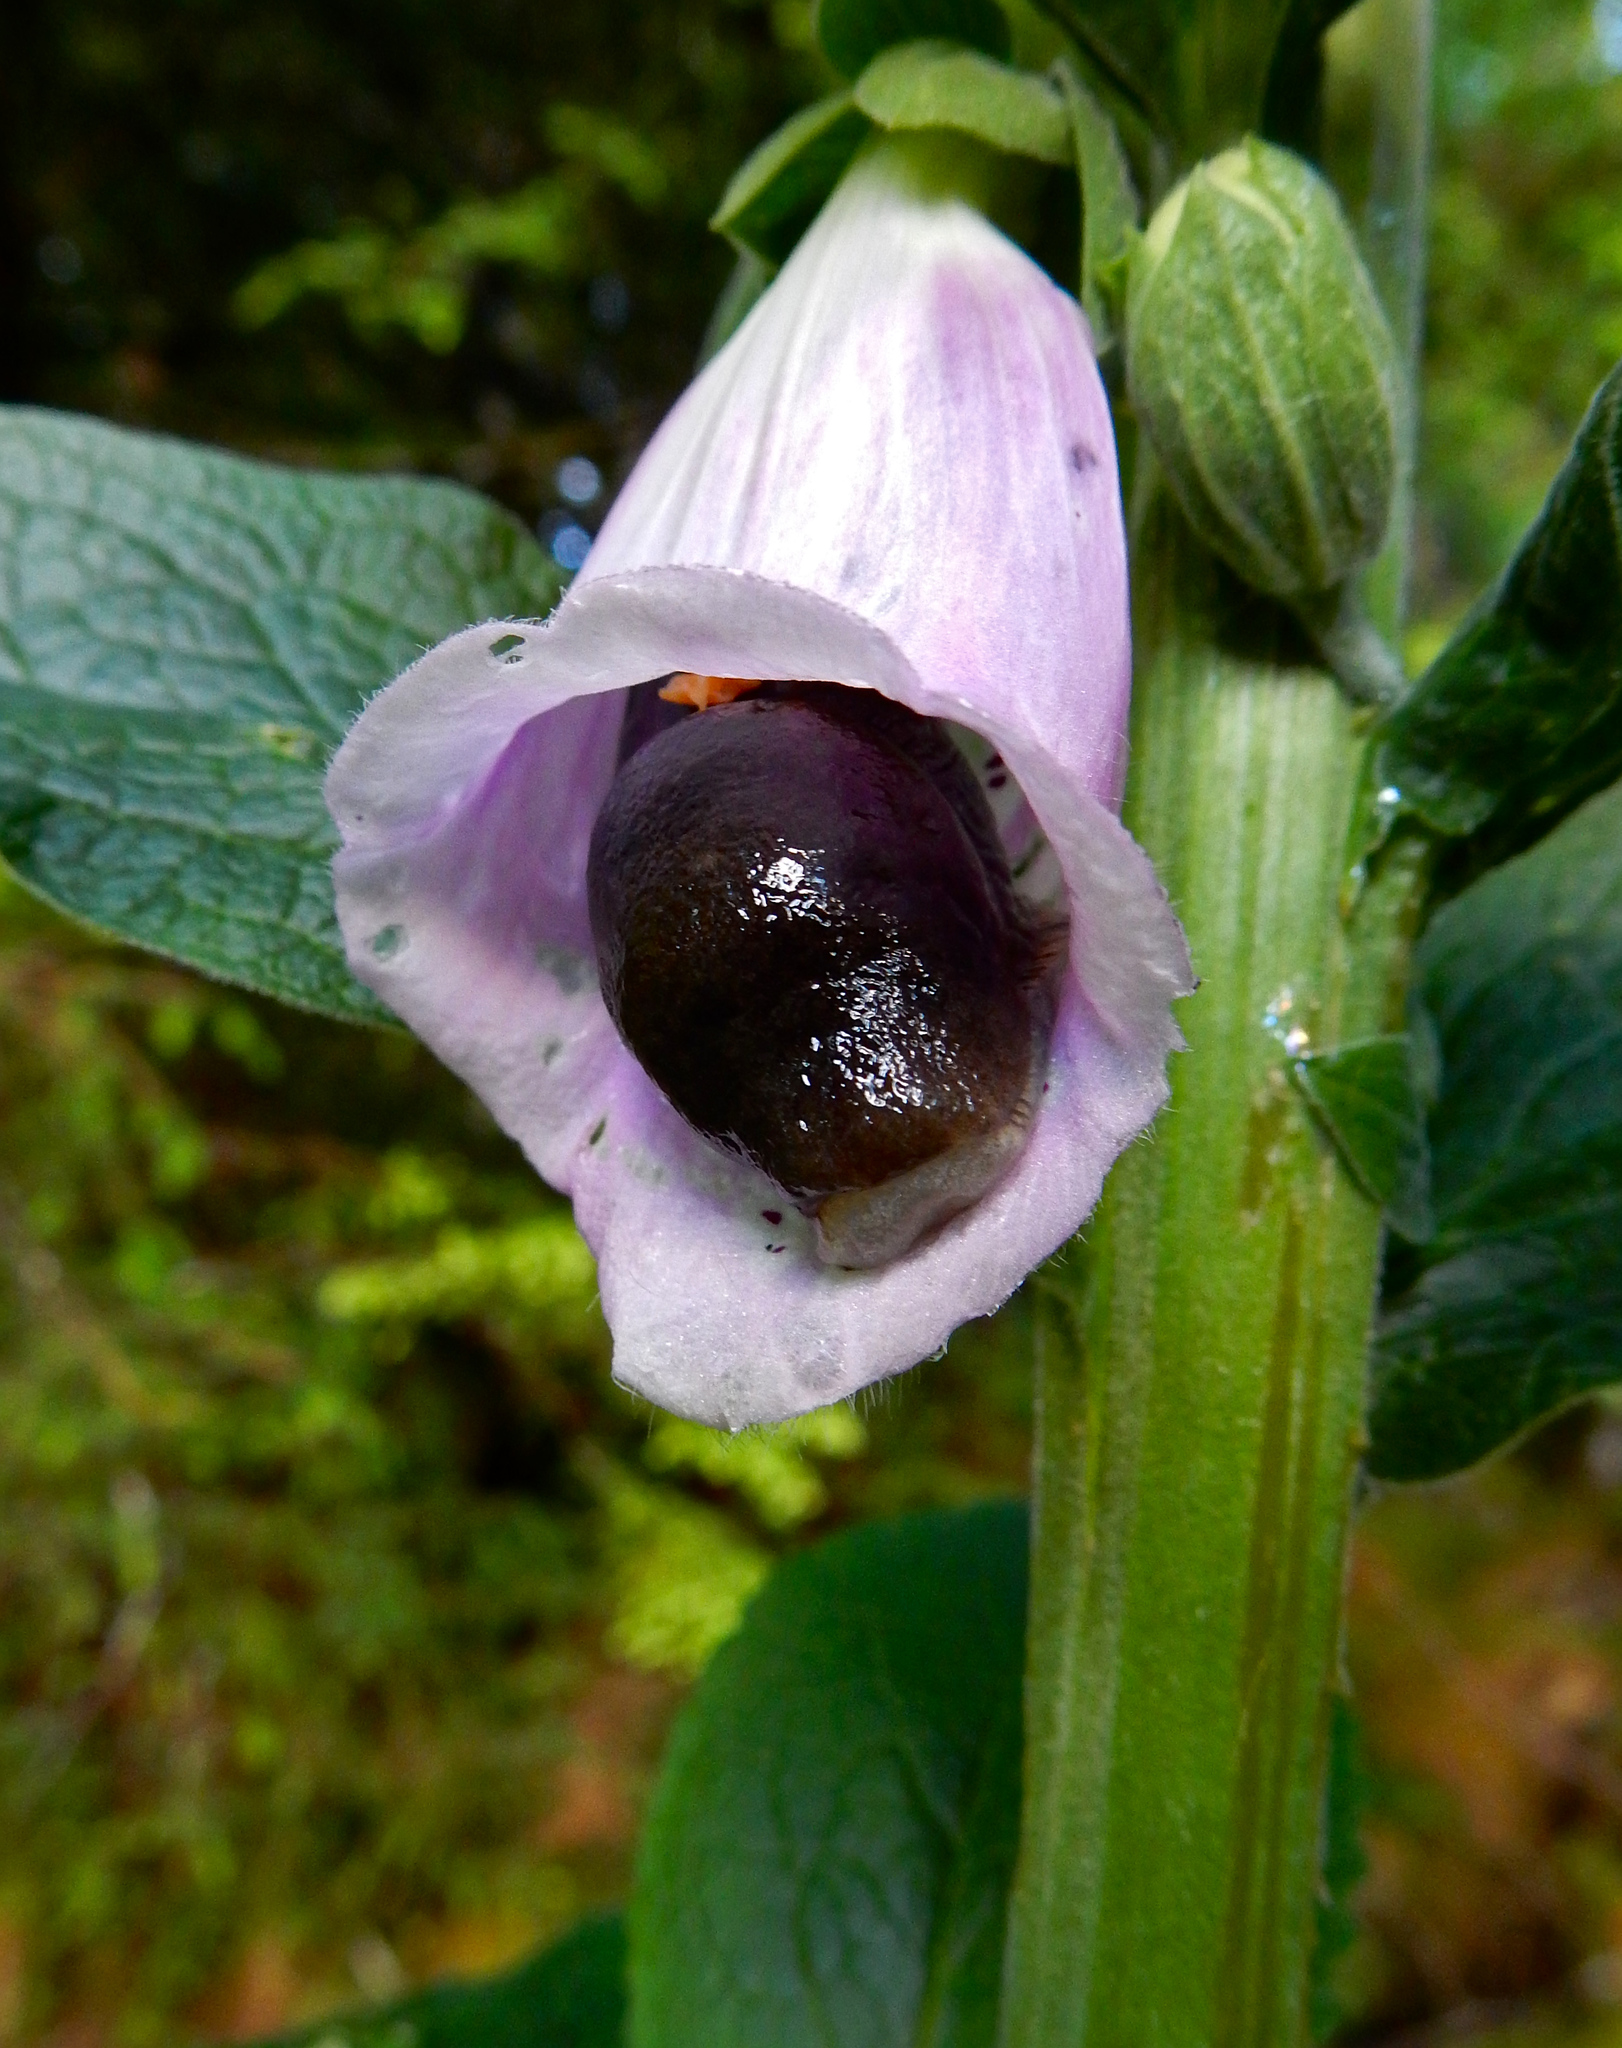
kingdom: Plantae
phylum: Tracheophyta
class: Magnoliopsida
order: Lamiales
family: Plantaginaceae
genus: Digitalis
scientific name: Digitalis purpurea
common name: Foxglove
